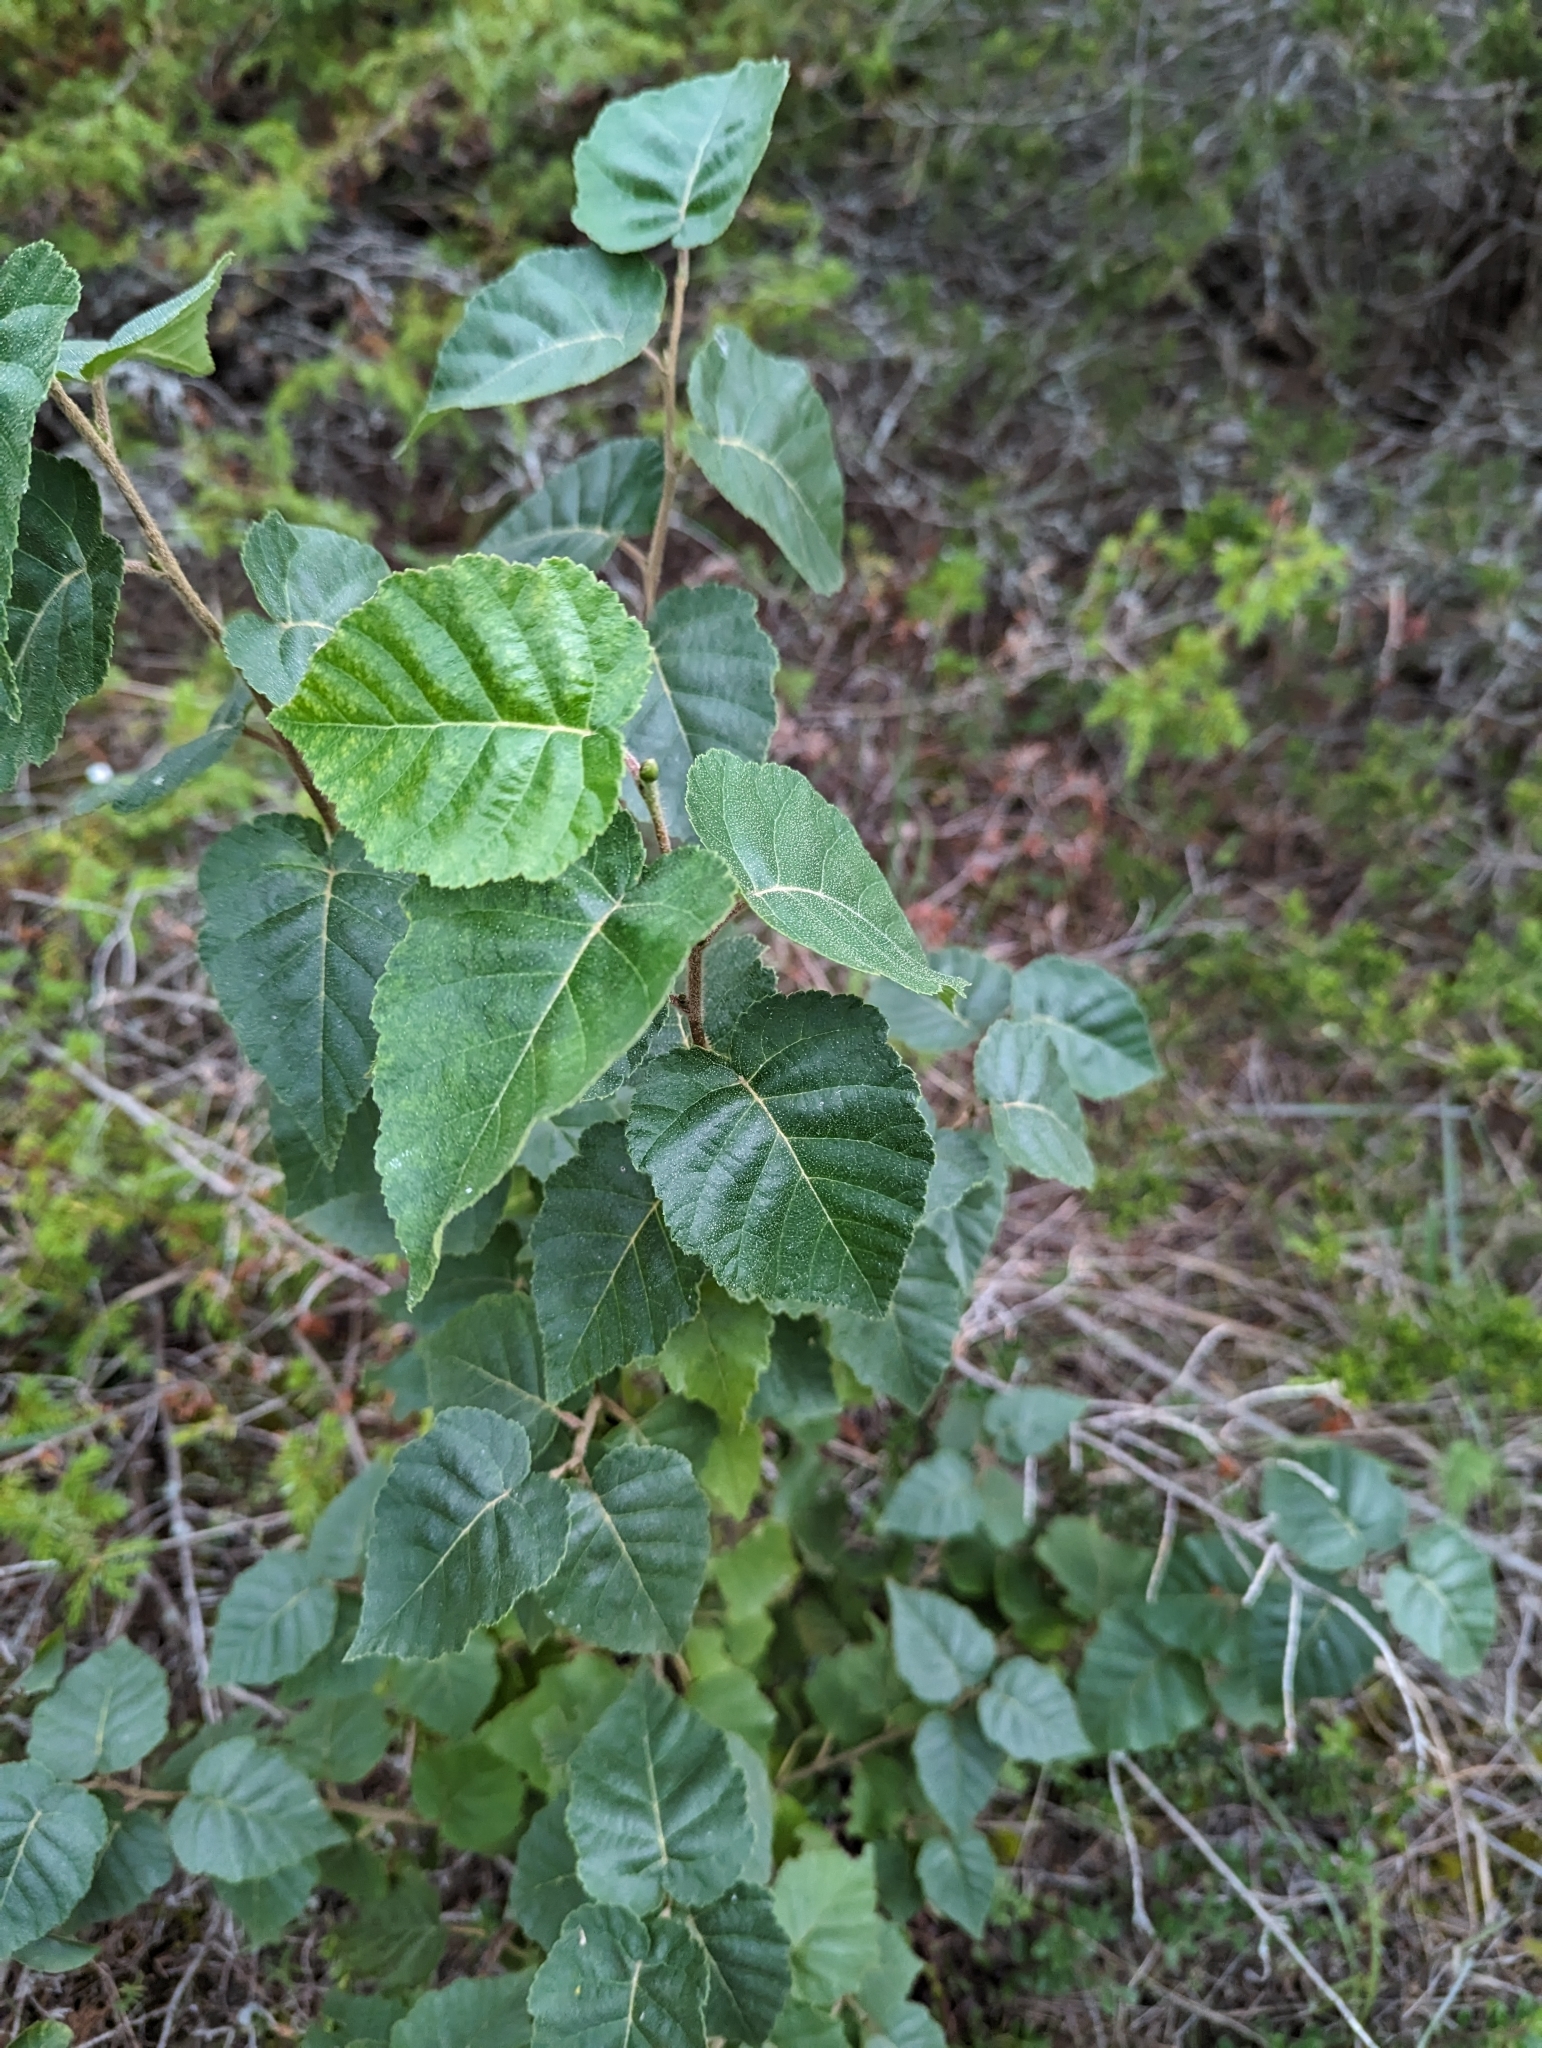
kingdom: Plantae
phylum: Tracheophyta
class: Magnoliopsida
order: Fagales
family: Betulaceae
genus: Betula
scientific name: Betula papyrifera
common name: Paper birch
